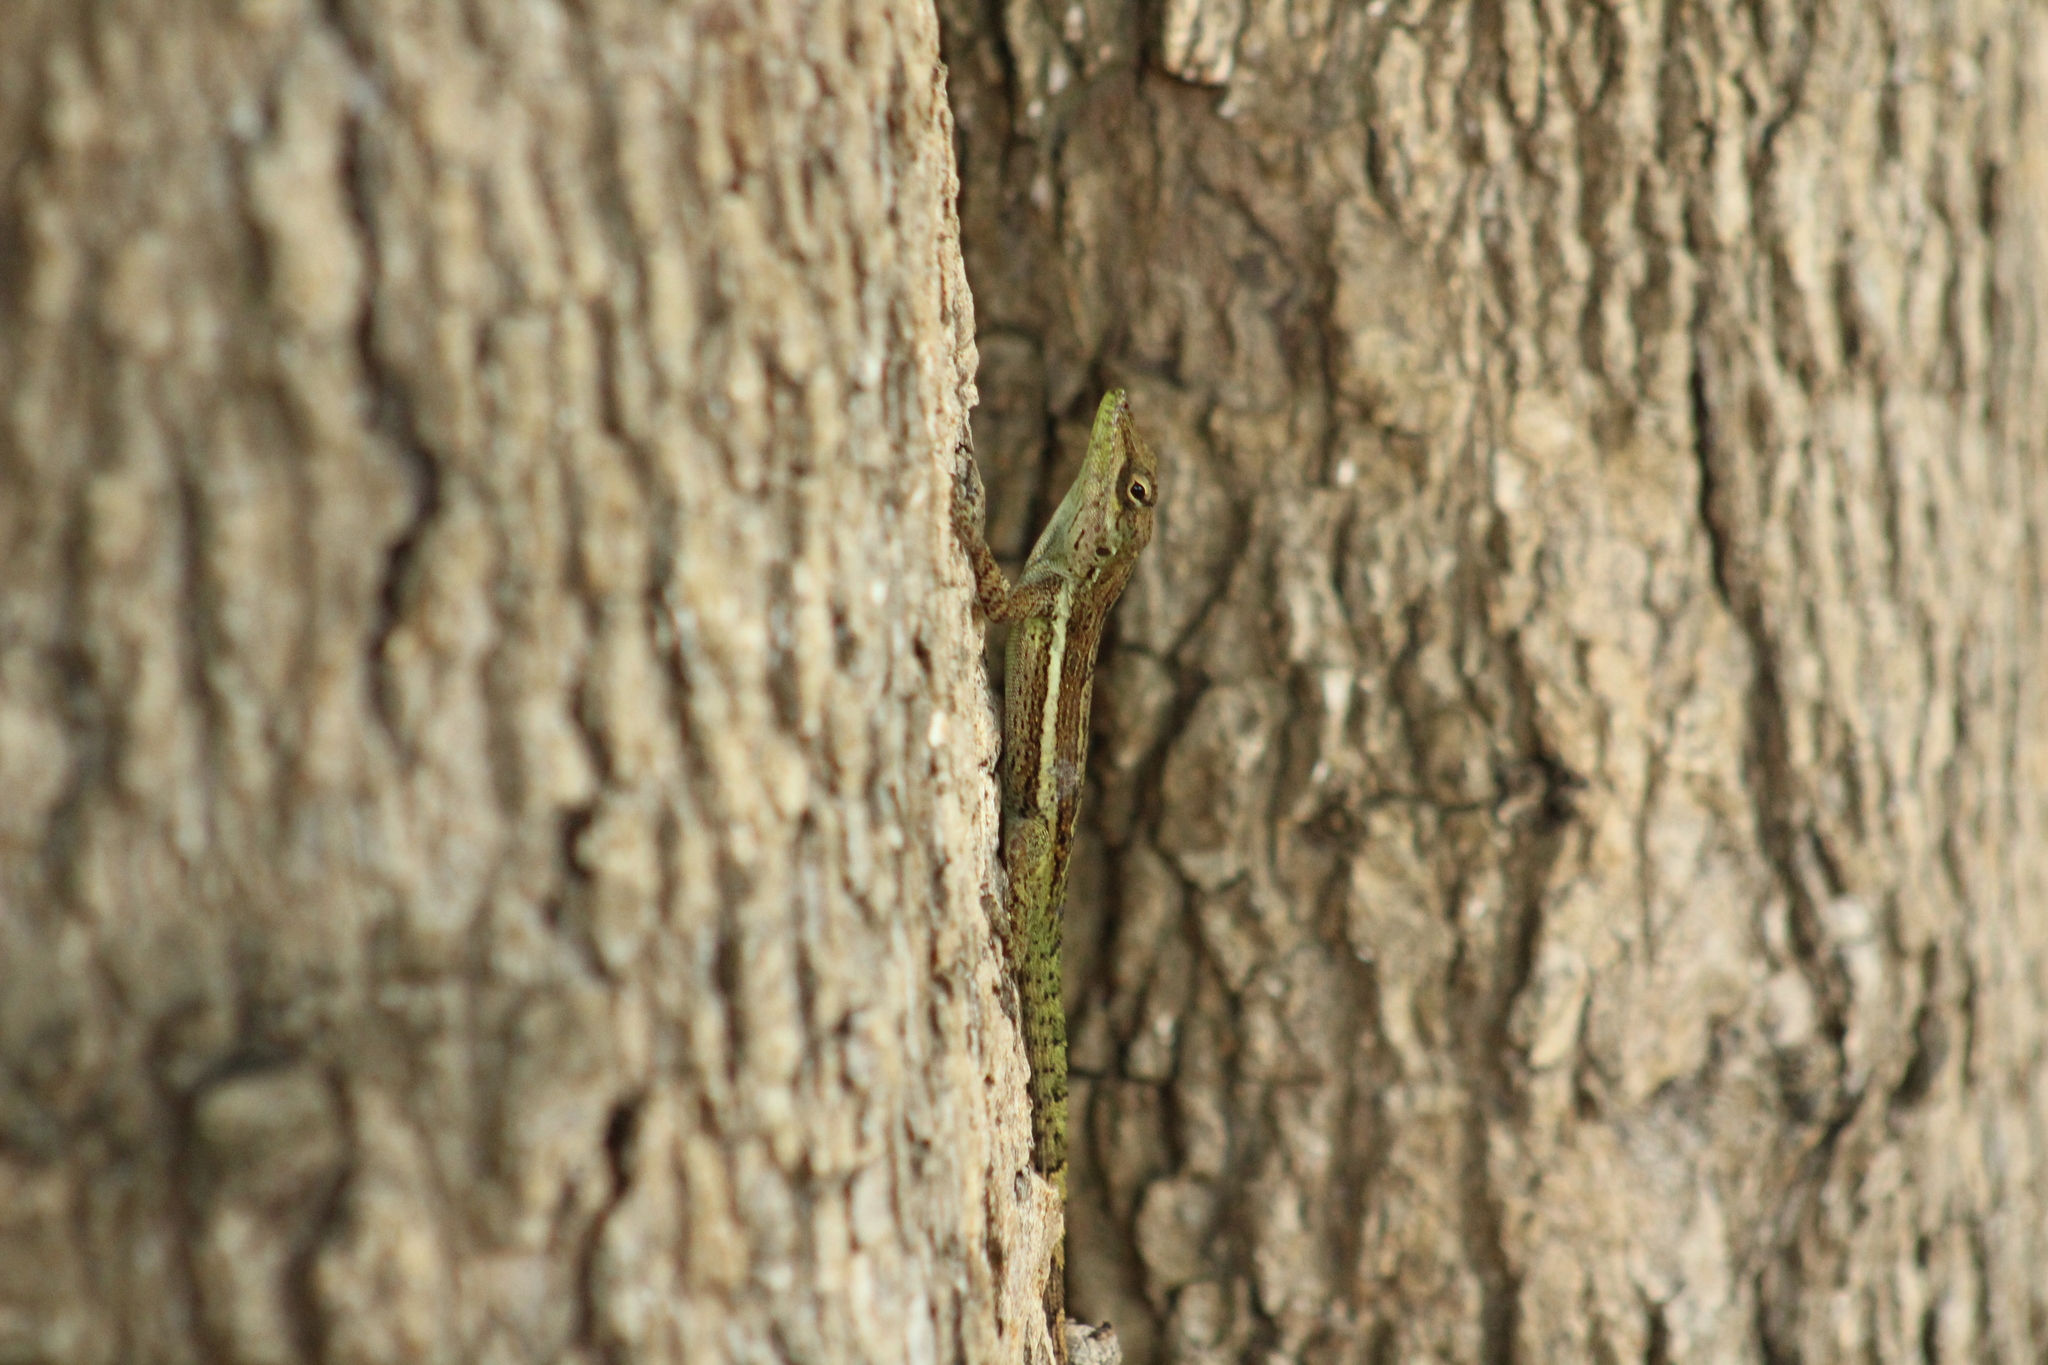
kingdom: Animalia
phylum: Chordata
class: Squamata
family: Dactyloidae
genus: Anolis
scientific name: Anolis gingivinus
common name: Anguilla anole
